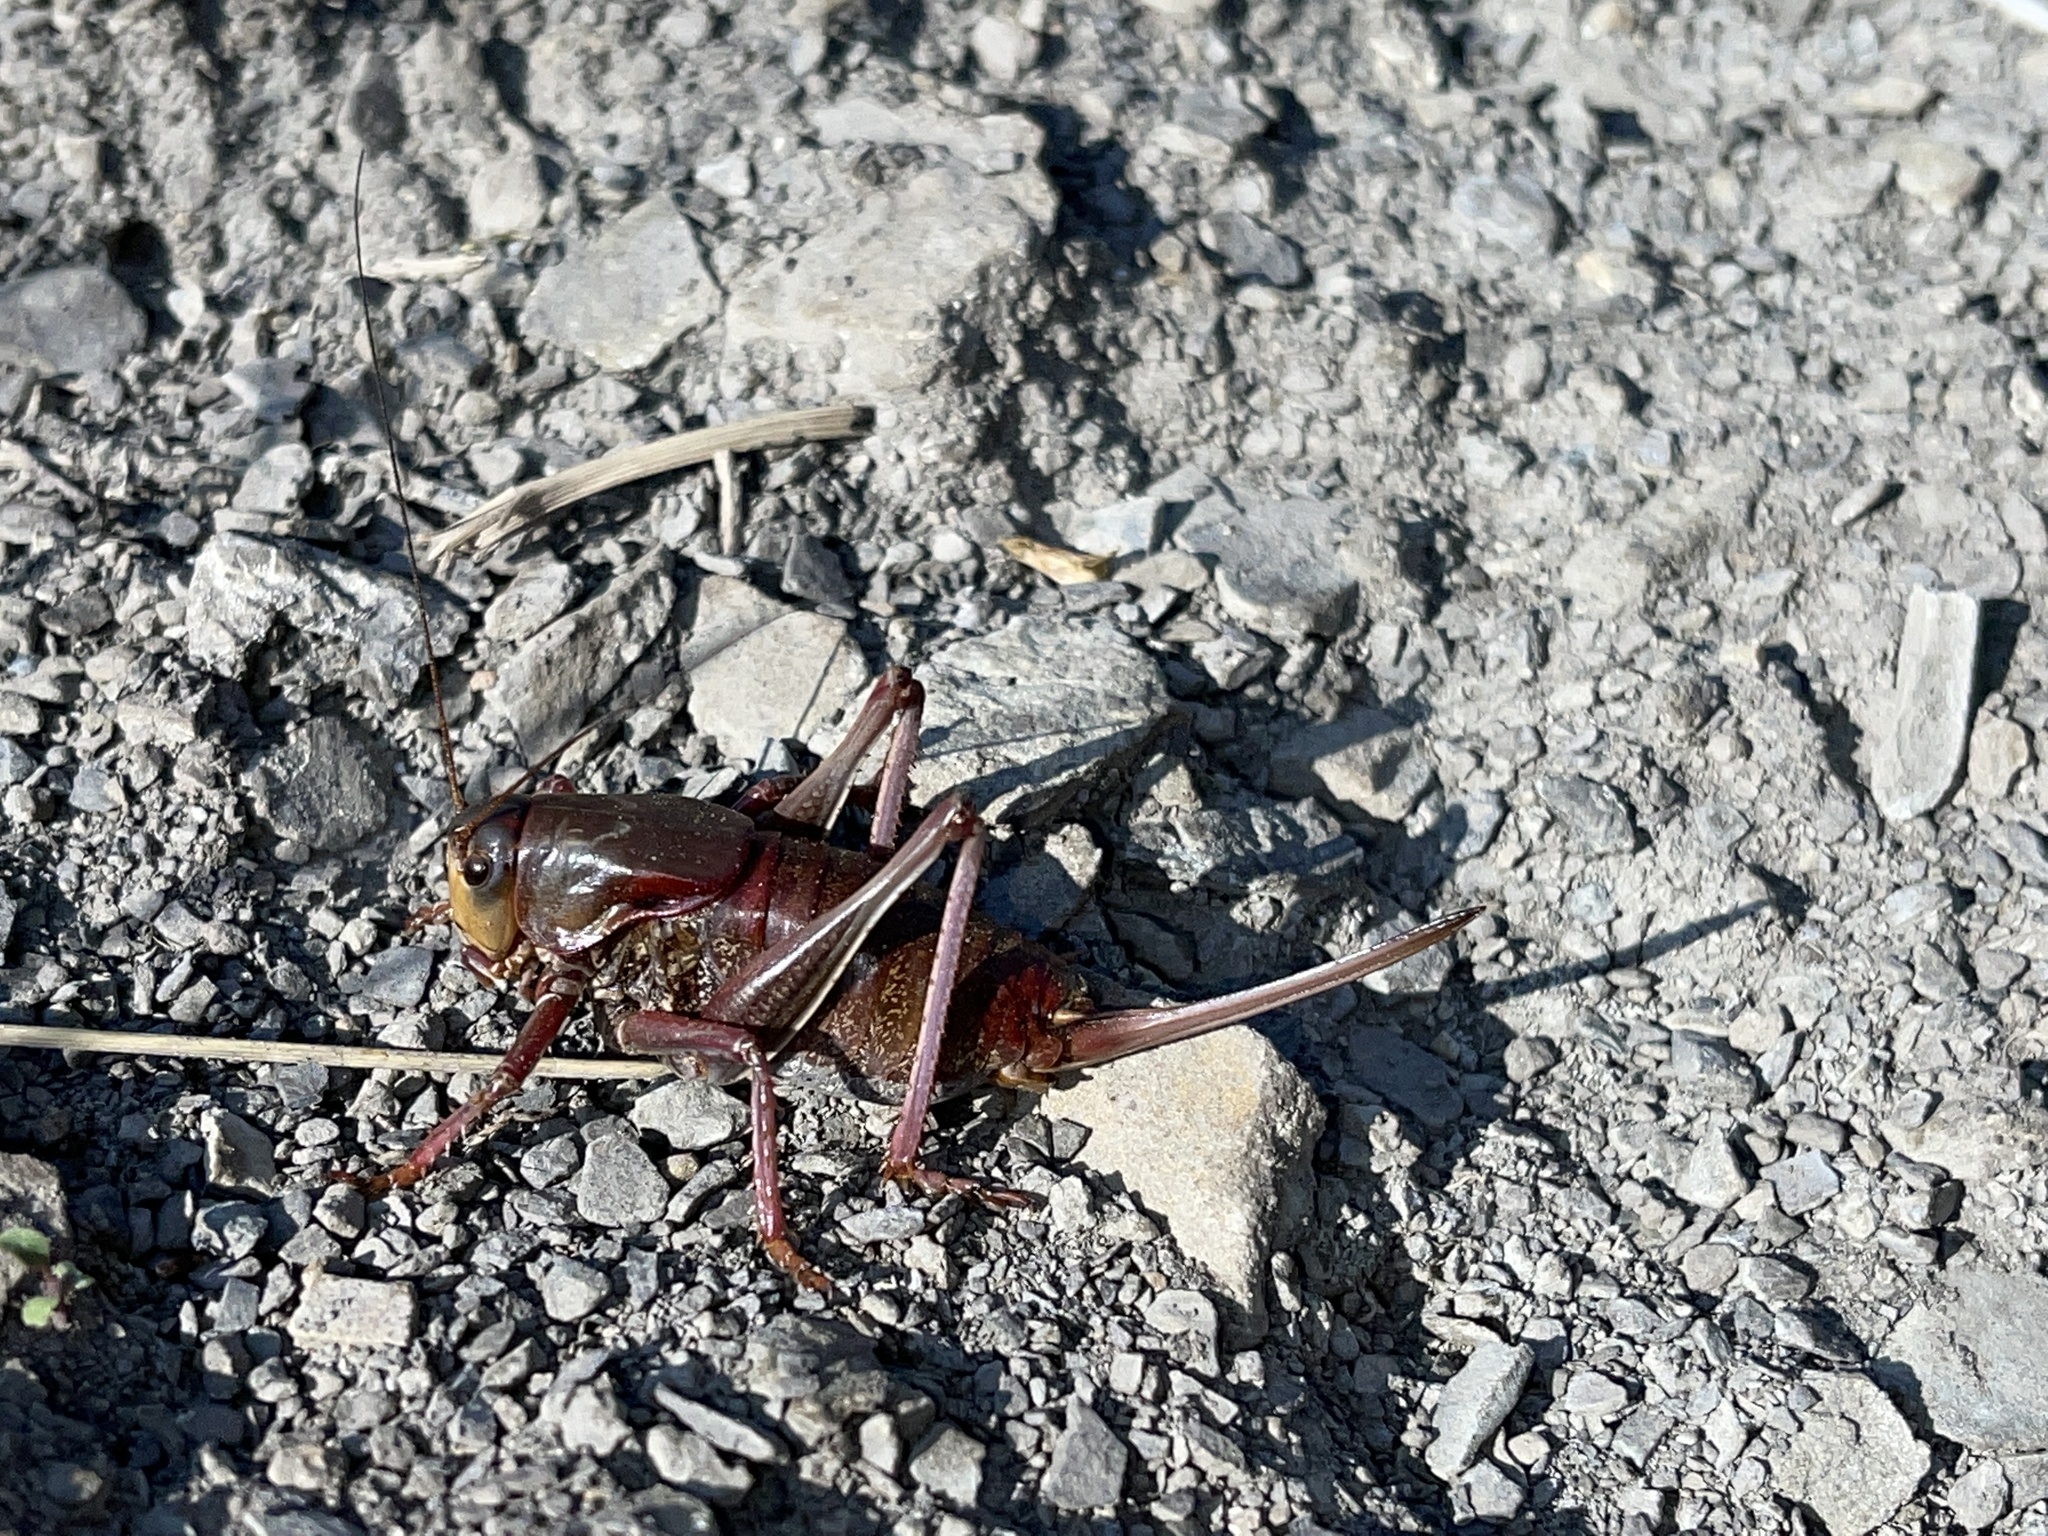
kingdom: Animalia
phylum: Arthropoda
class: Insecta
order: Orthoptera
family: Tettigoniidae
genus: Anabrus
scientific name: Anabrus simplex
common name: Mormon cricket
